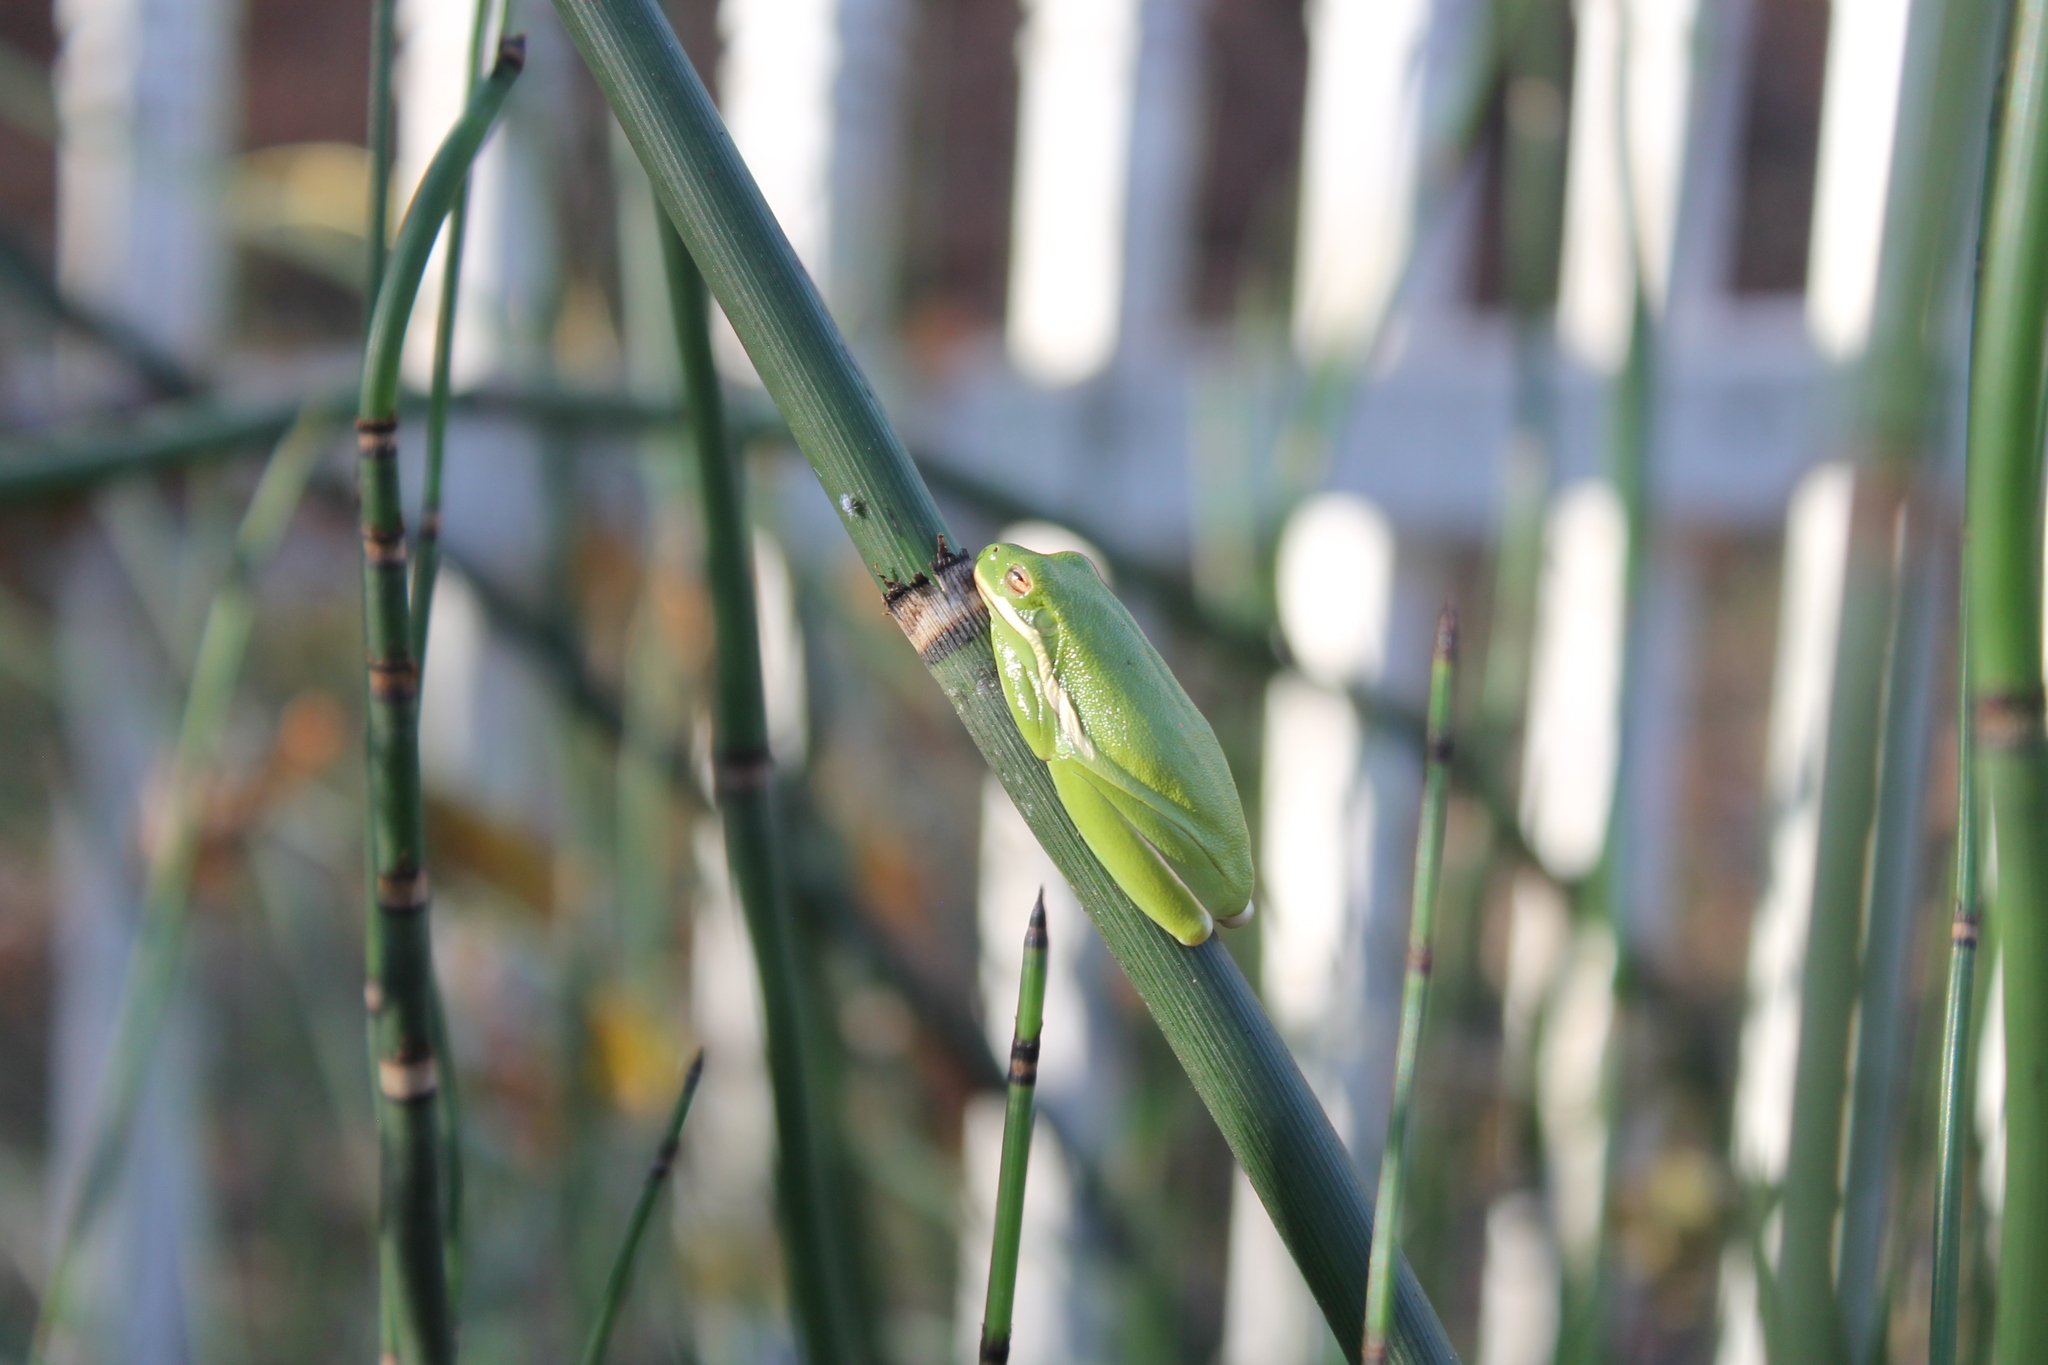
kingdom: Animalia
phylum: Chordata
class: Amphibia
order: Anura
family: Hylidae
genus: Dryophytes
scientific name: Dryophytes cinereus
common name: Green treefrog
